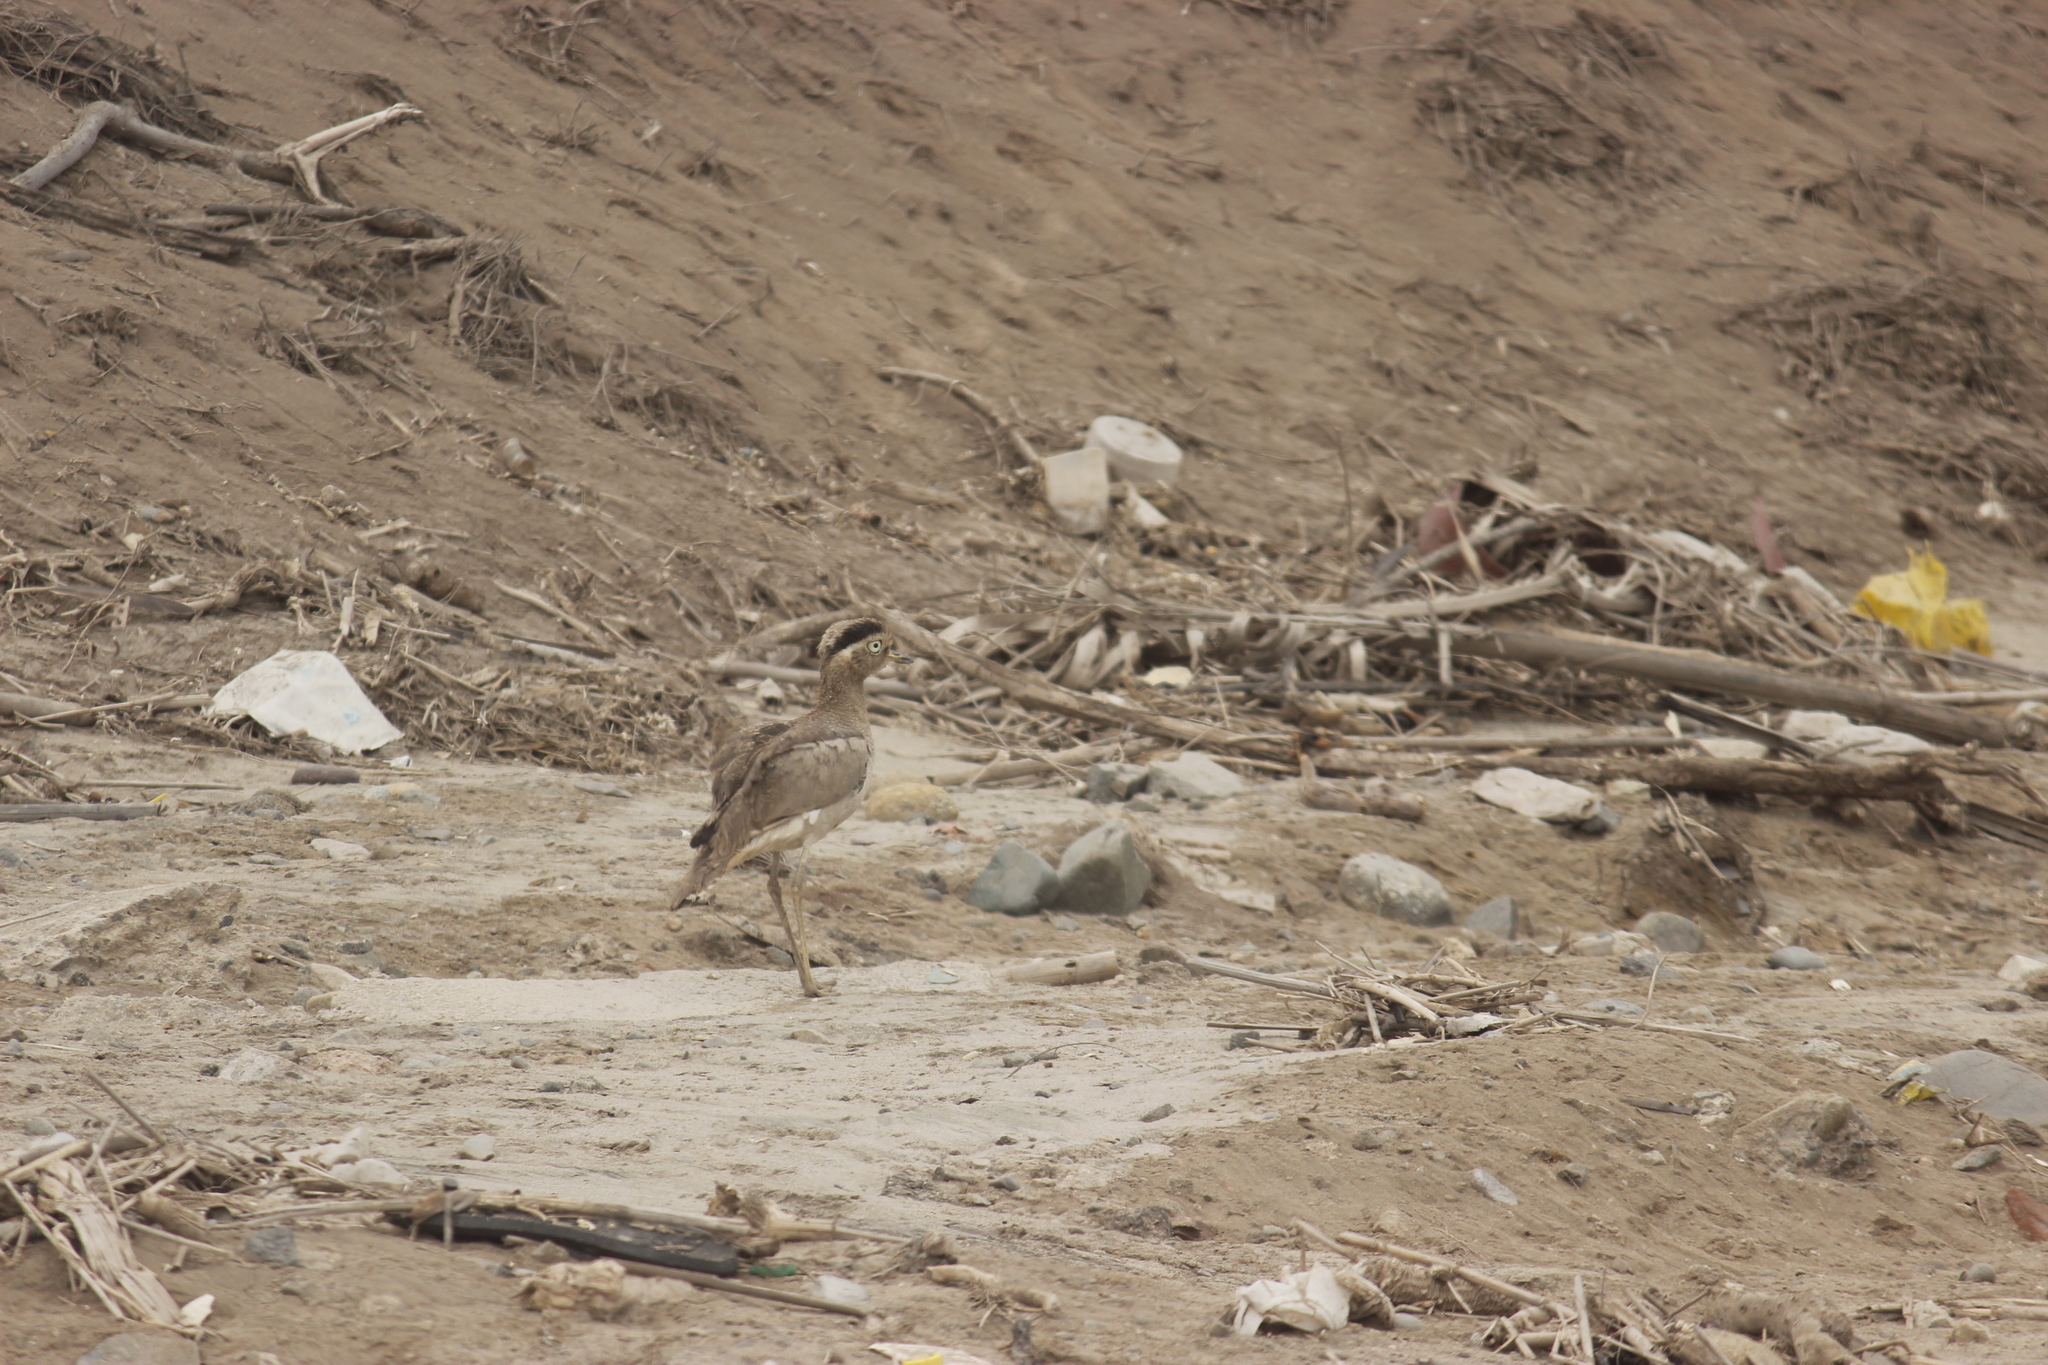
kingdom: Animalia
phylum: Chordata
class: Aves
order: Charadriiformes
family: Burhinidae
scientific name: Burhinidae
